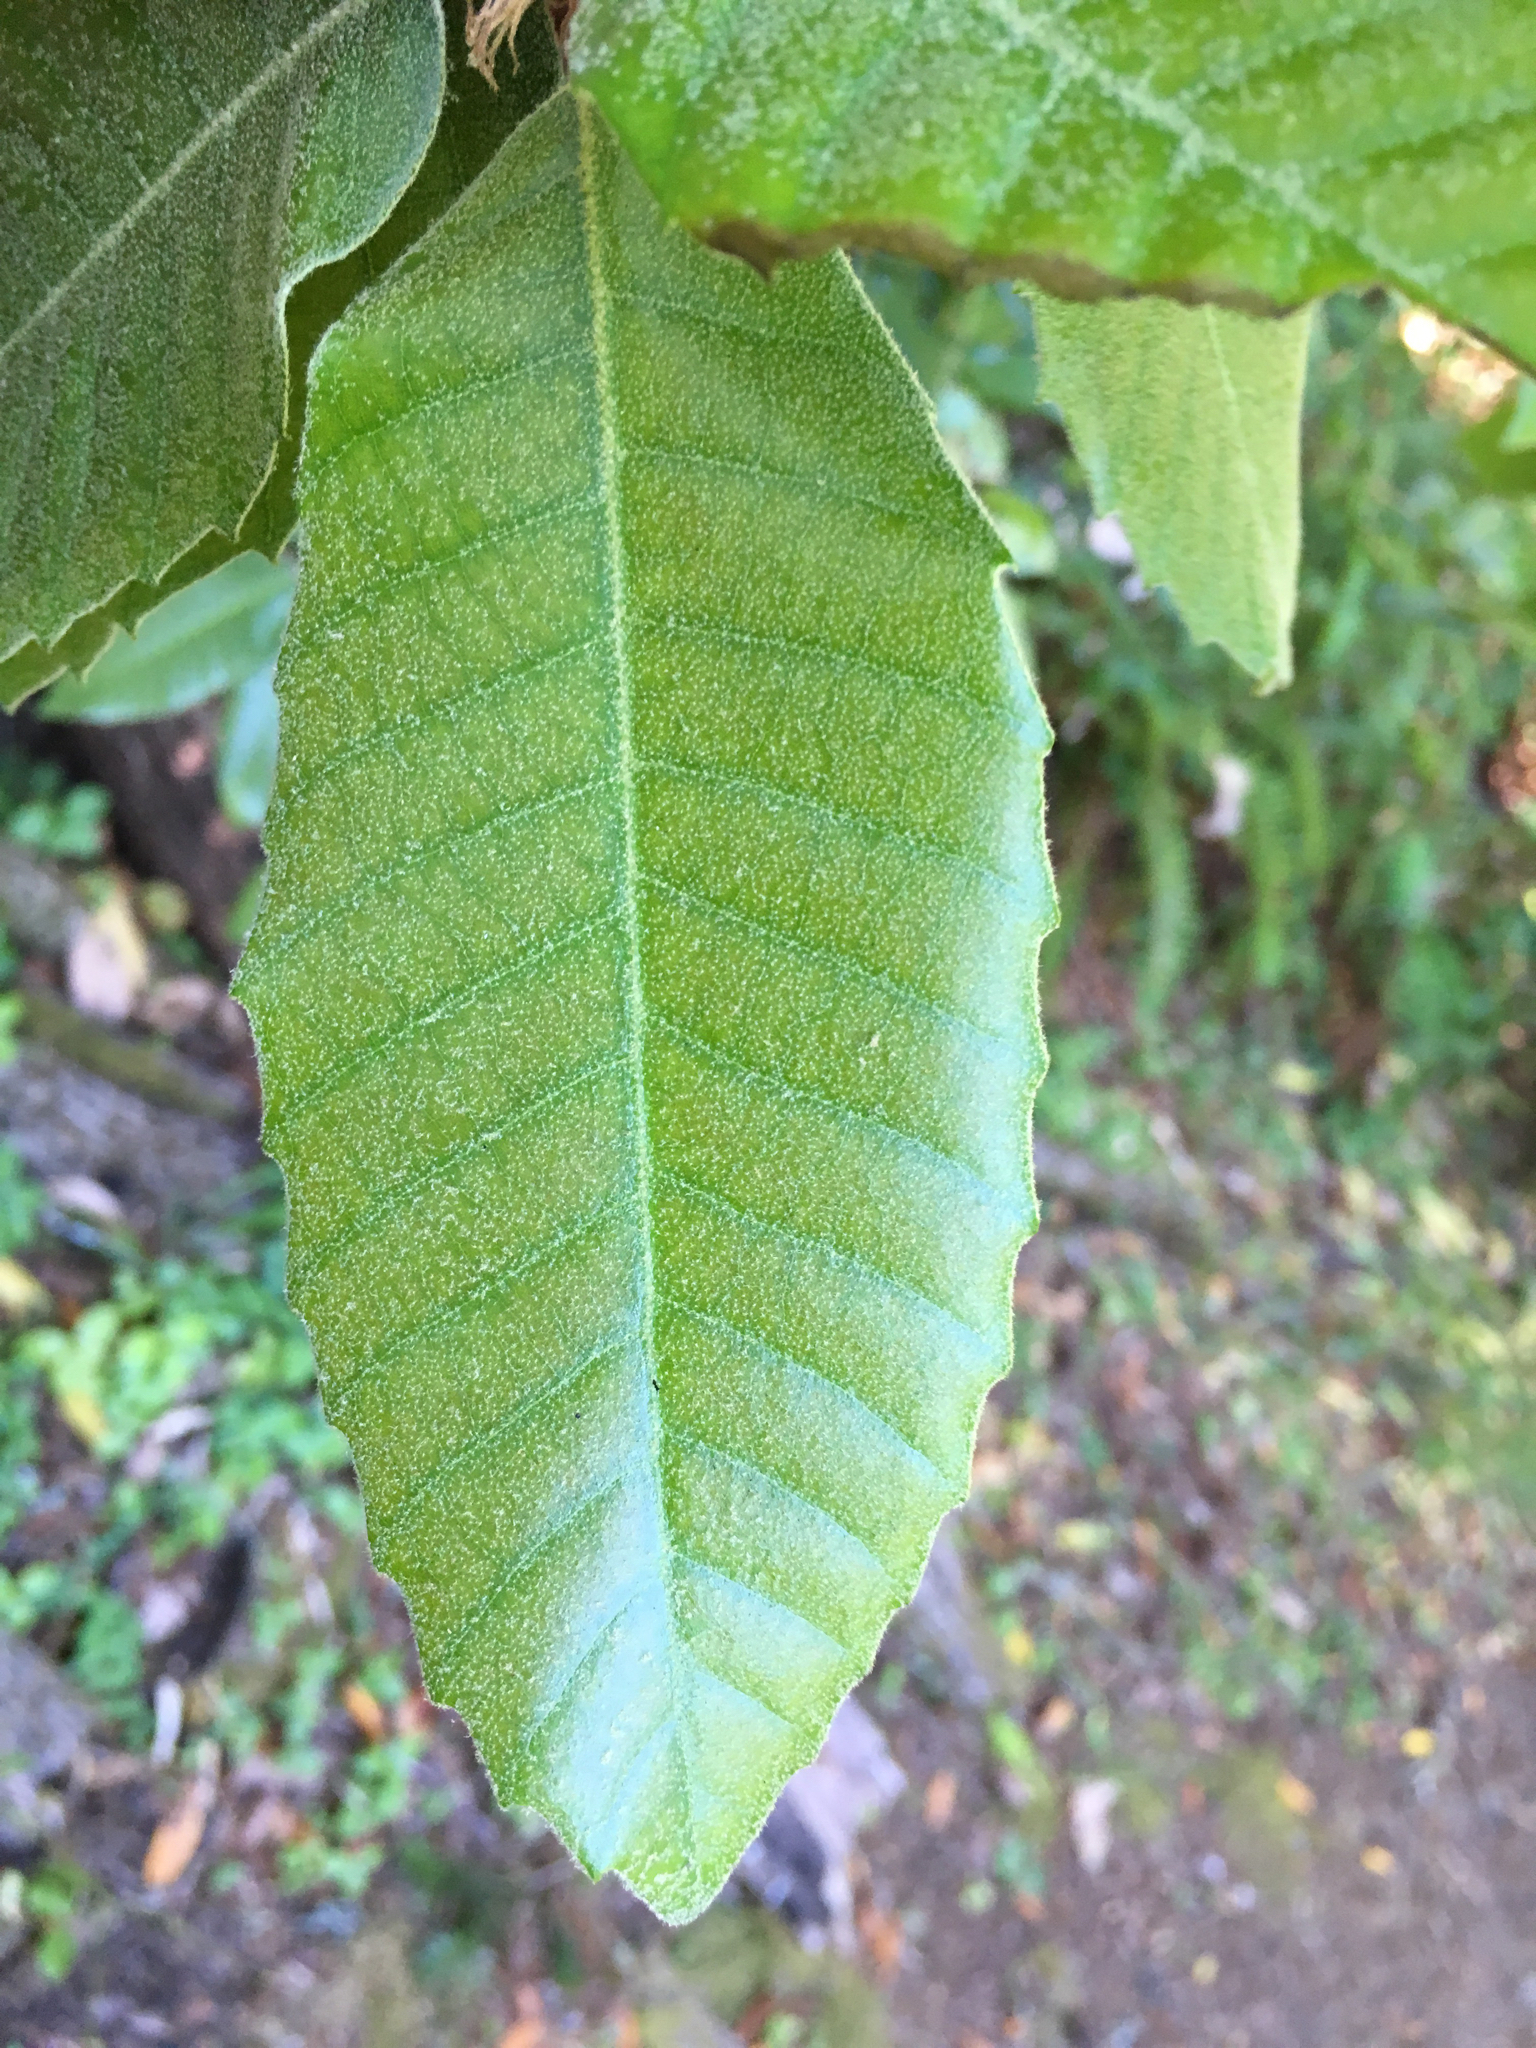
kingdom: Plantae
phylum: Tracheophyta
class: Magnoliopsida
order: Fagales
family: Fagaceae
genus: Notholithocarpus
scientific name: Notholithocarpus densiflorus
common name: Tan bark oak
